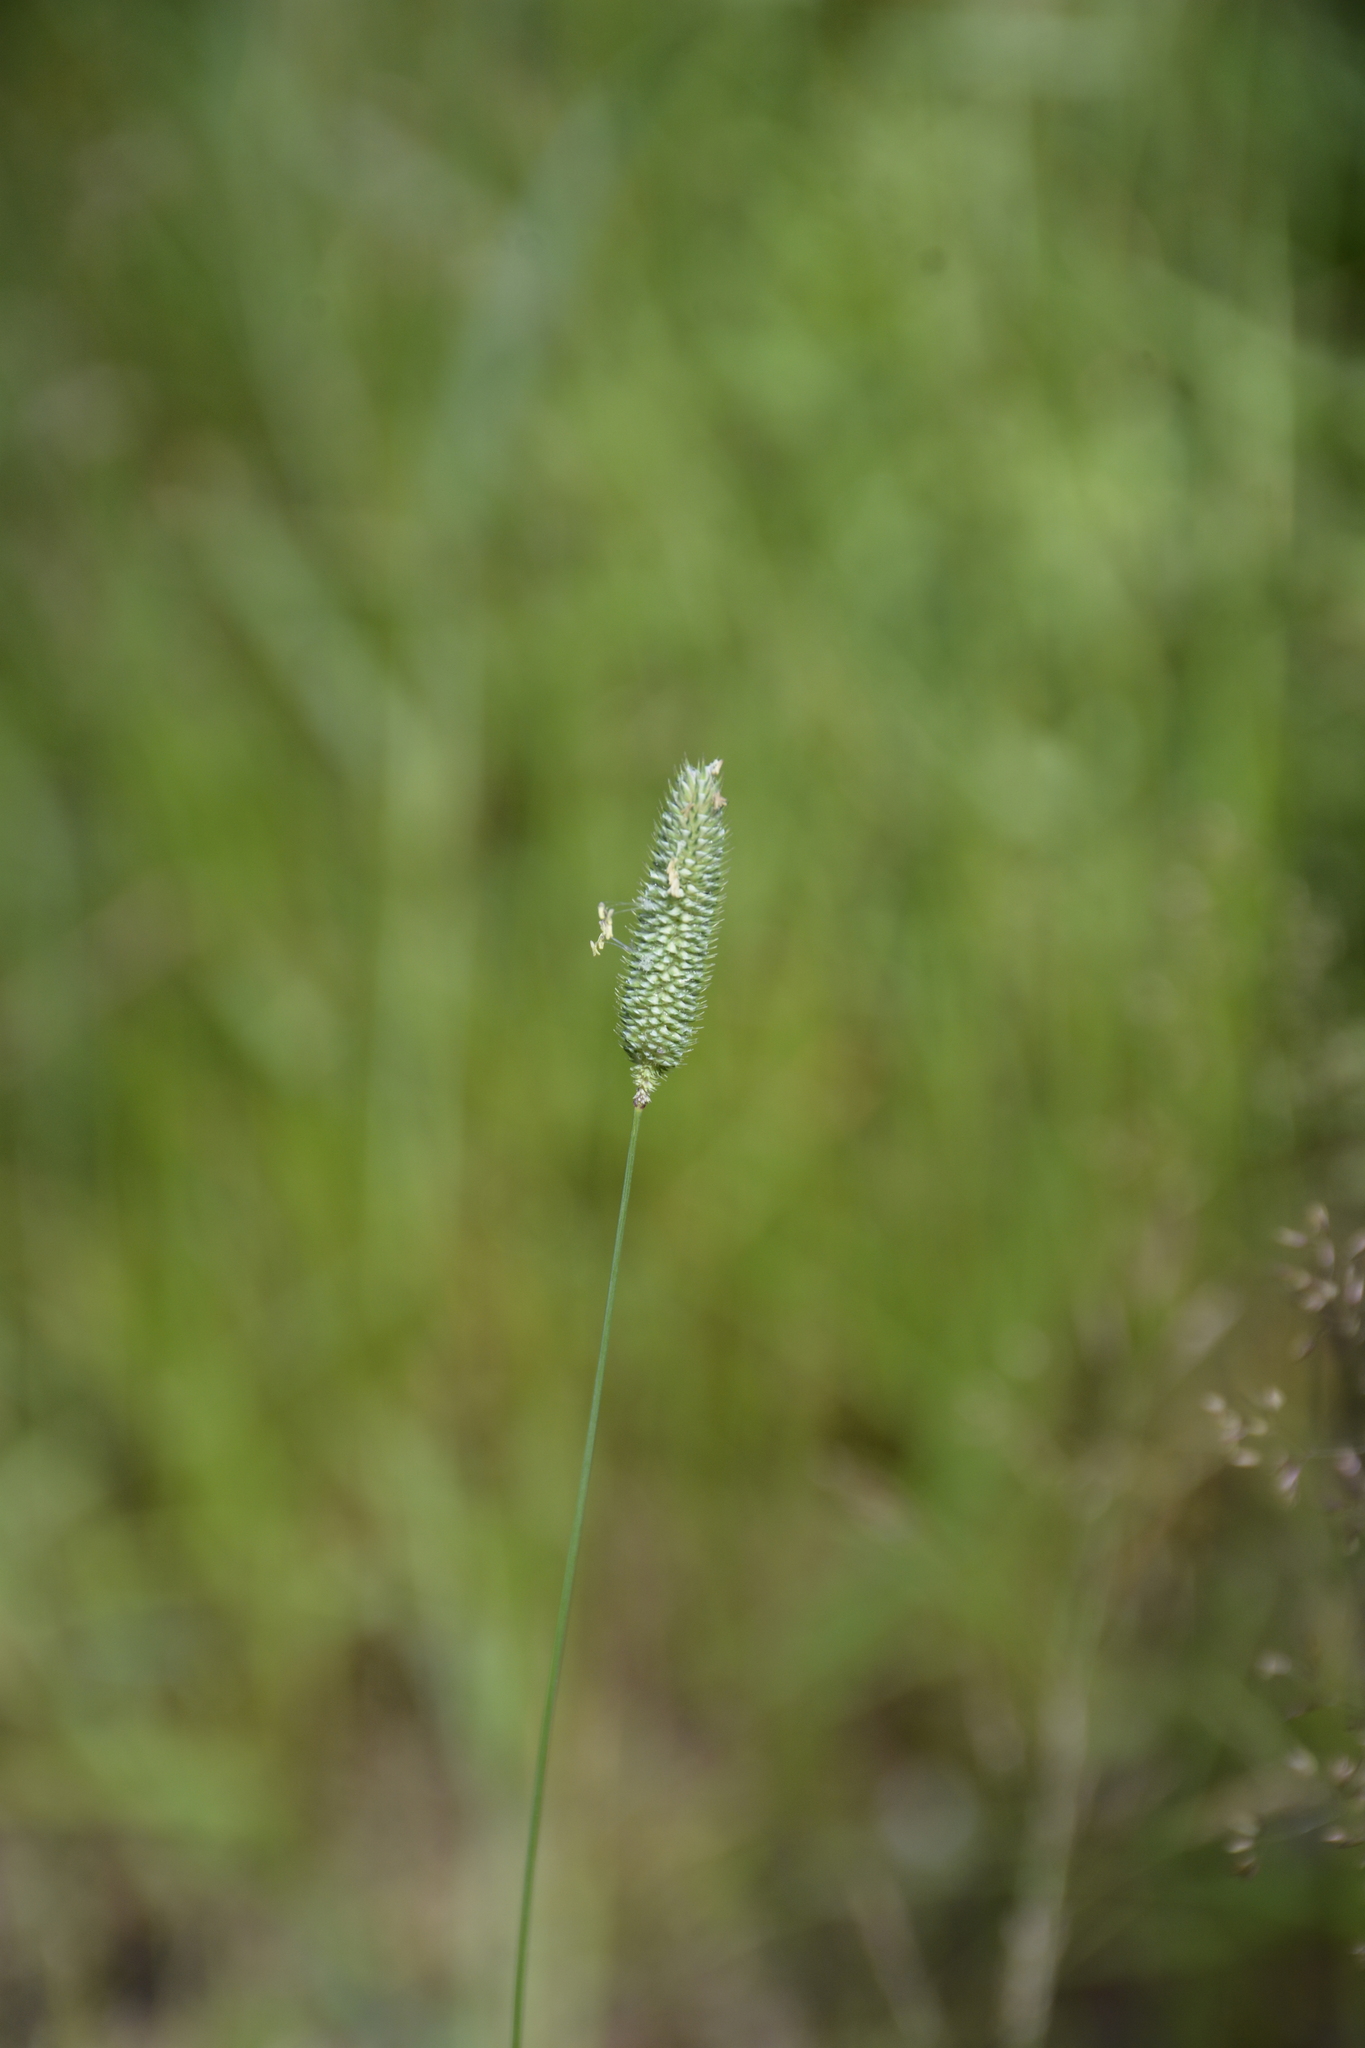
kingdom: Plantae
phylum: Tracheophyta
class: Liliopsida
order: Poales
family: Poaceae
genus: Phleum
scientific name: Phleum pratense
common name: Timothy grass
